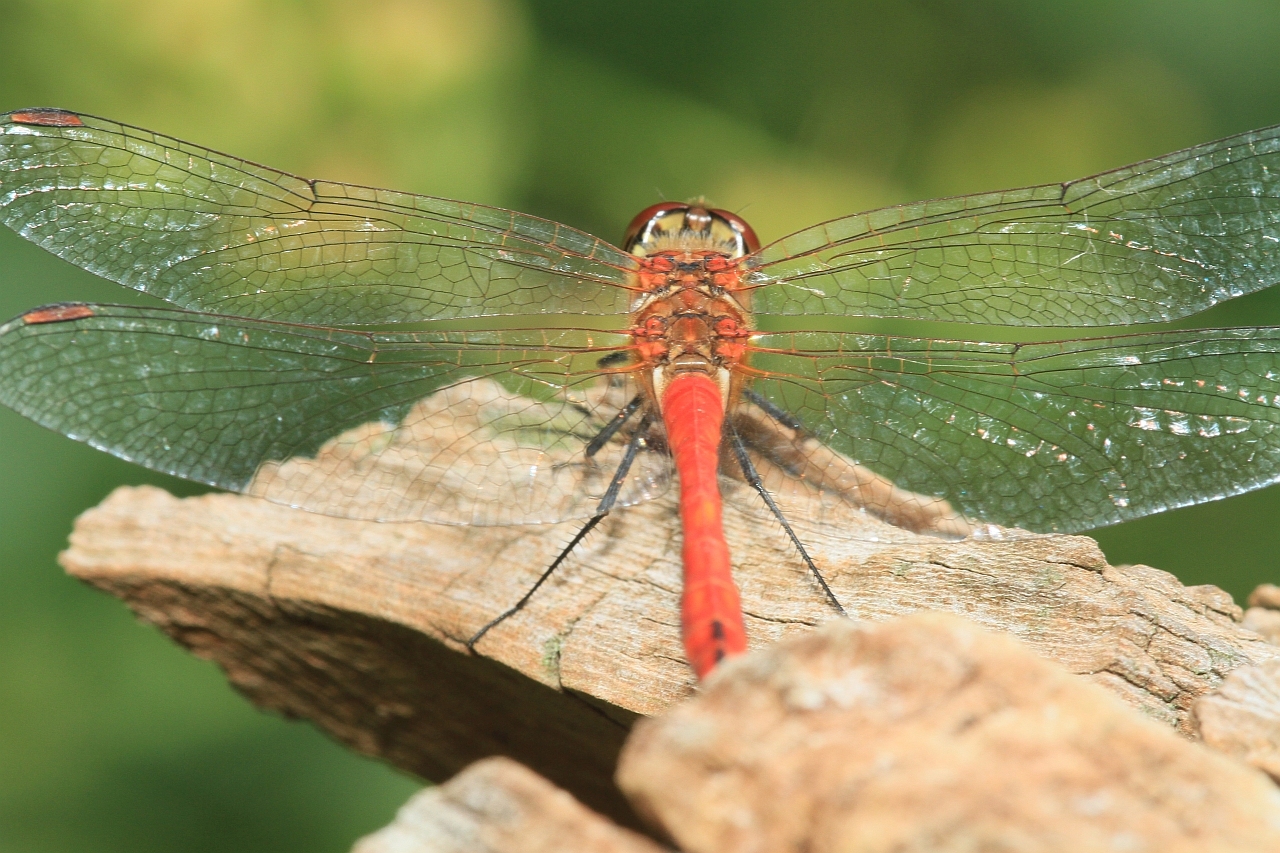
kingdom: Animalia
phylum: Arthropoda
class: Insecta
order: Odonata
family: Libellulidae
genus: Sympetrum
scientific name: Sympetrum sanguineum
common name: Ruddy darter
